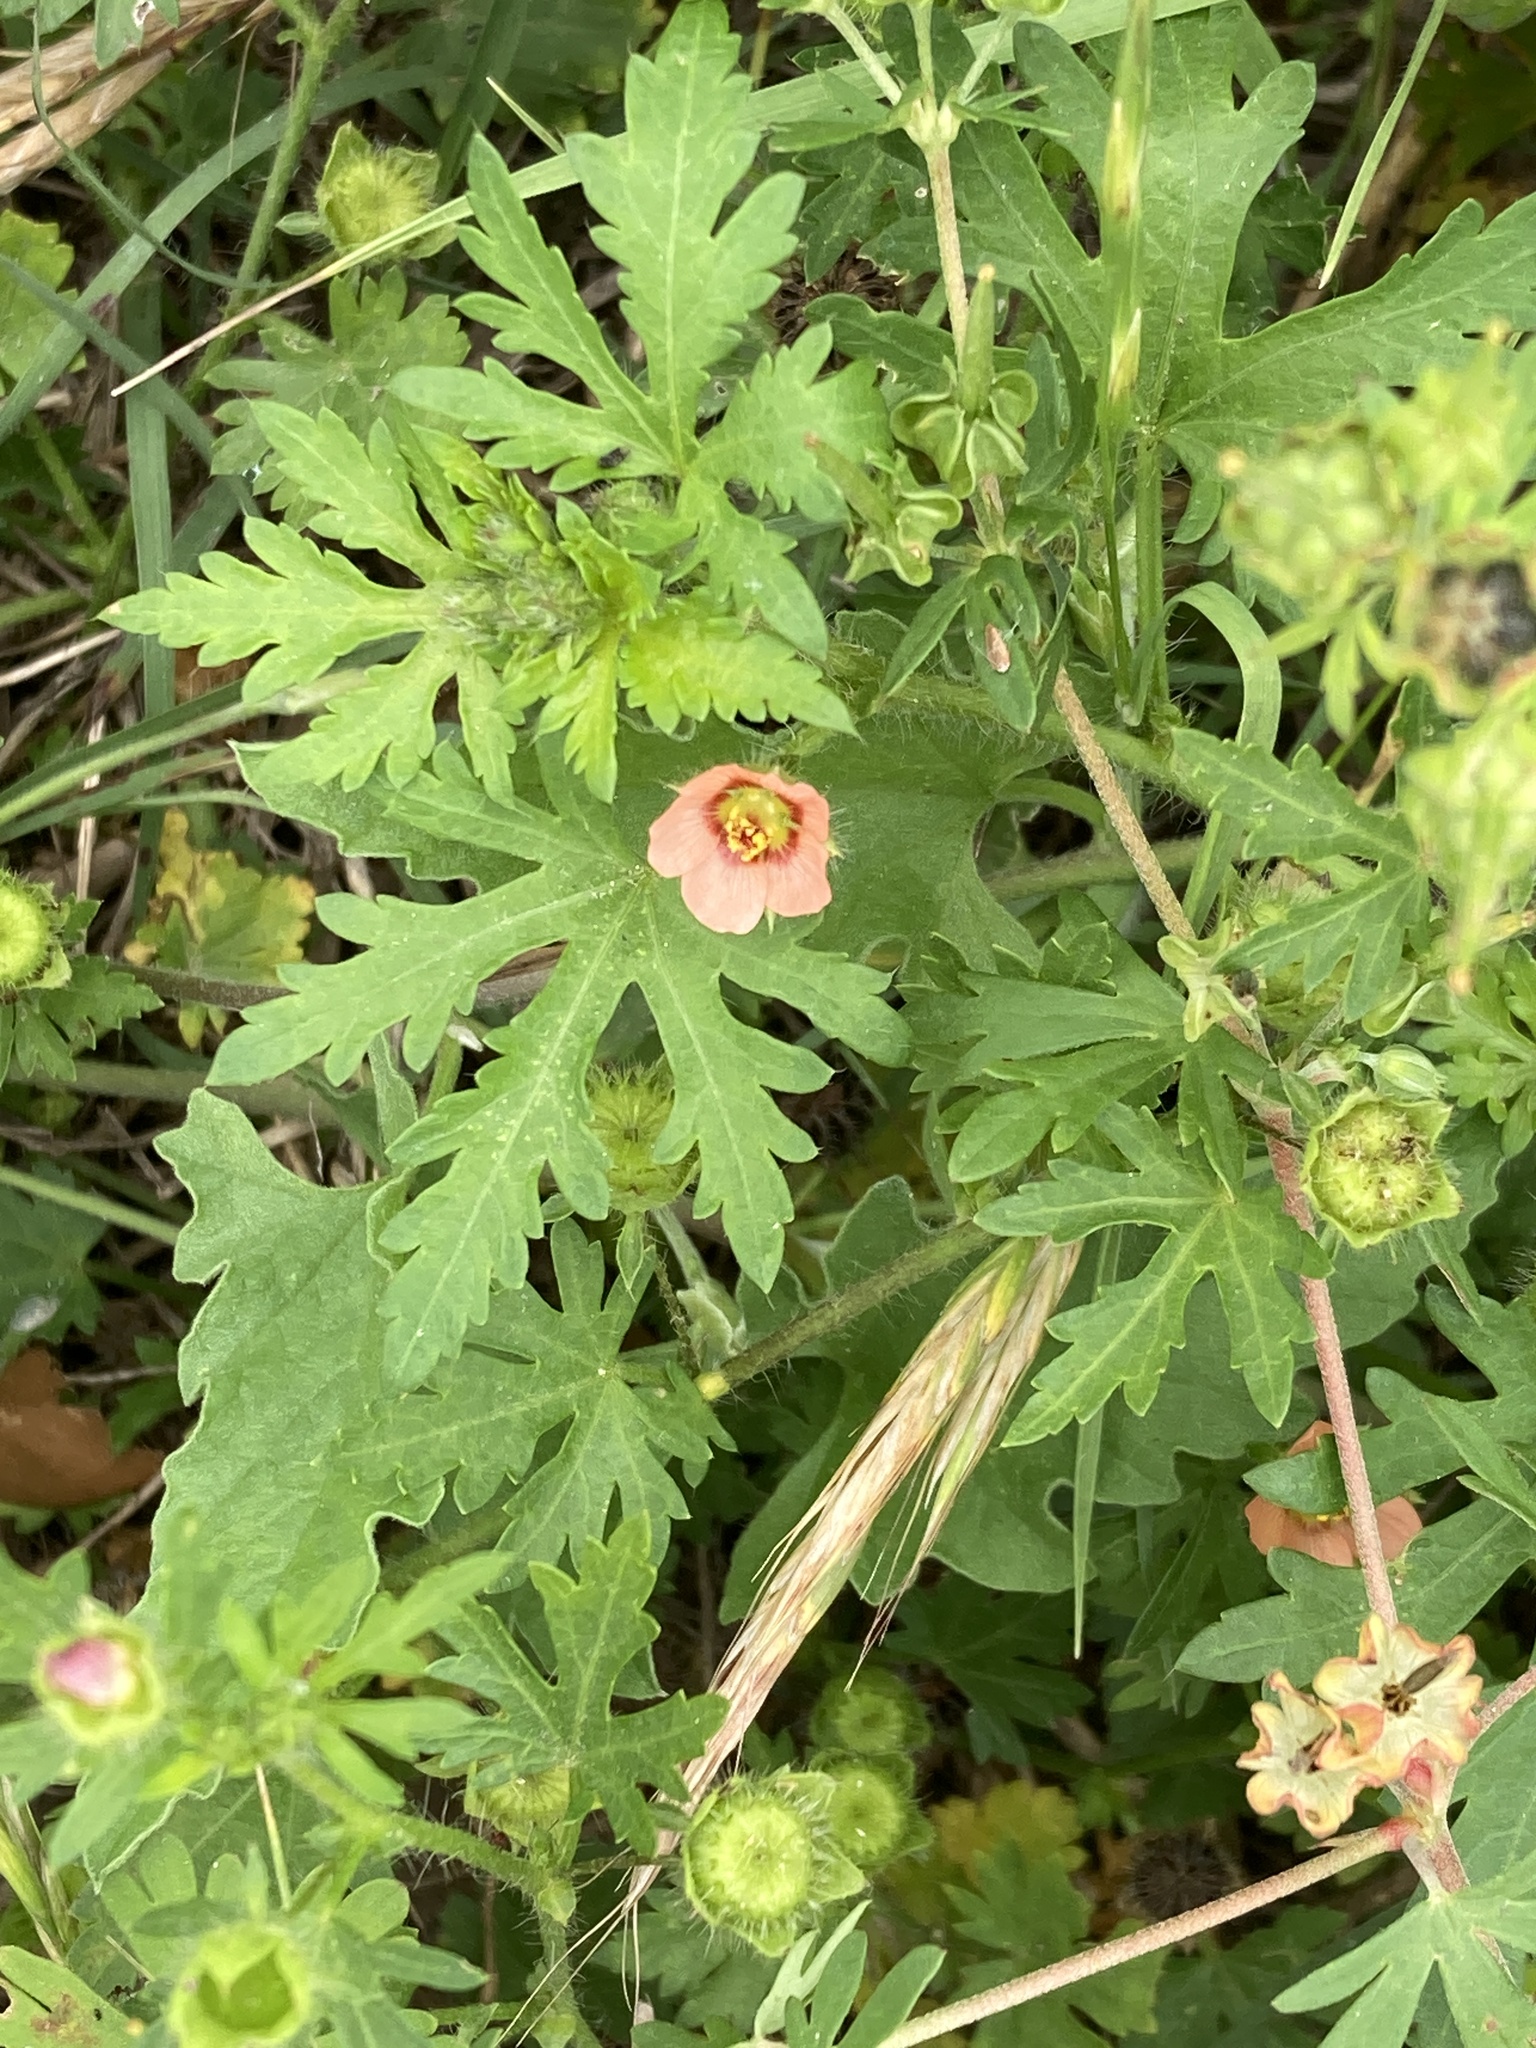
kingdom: Plantae
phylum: Tracheophyta
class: Magnoliopsida
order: Malvales
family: Malvaceae
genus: Modiola
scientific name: Modiola caroliniana
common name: Carolina bristlemallow
